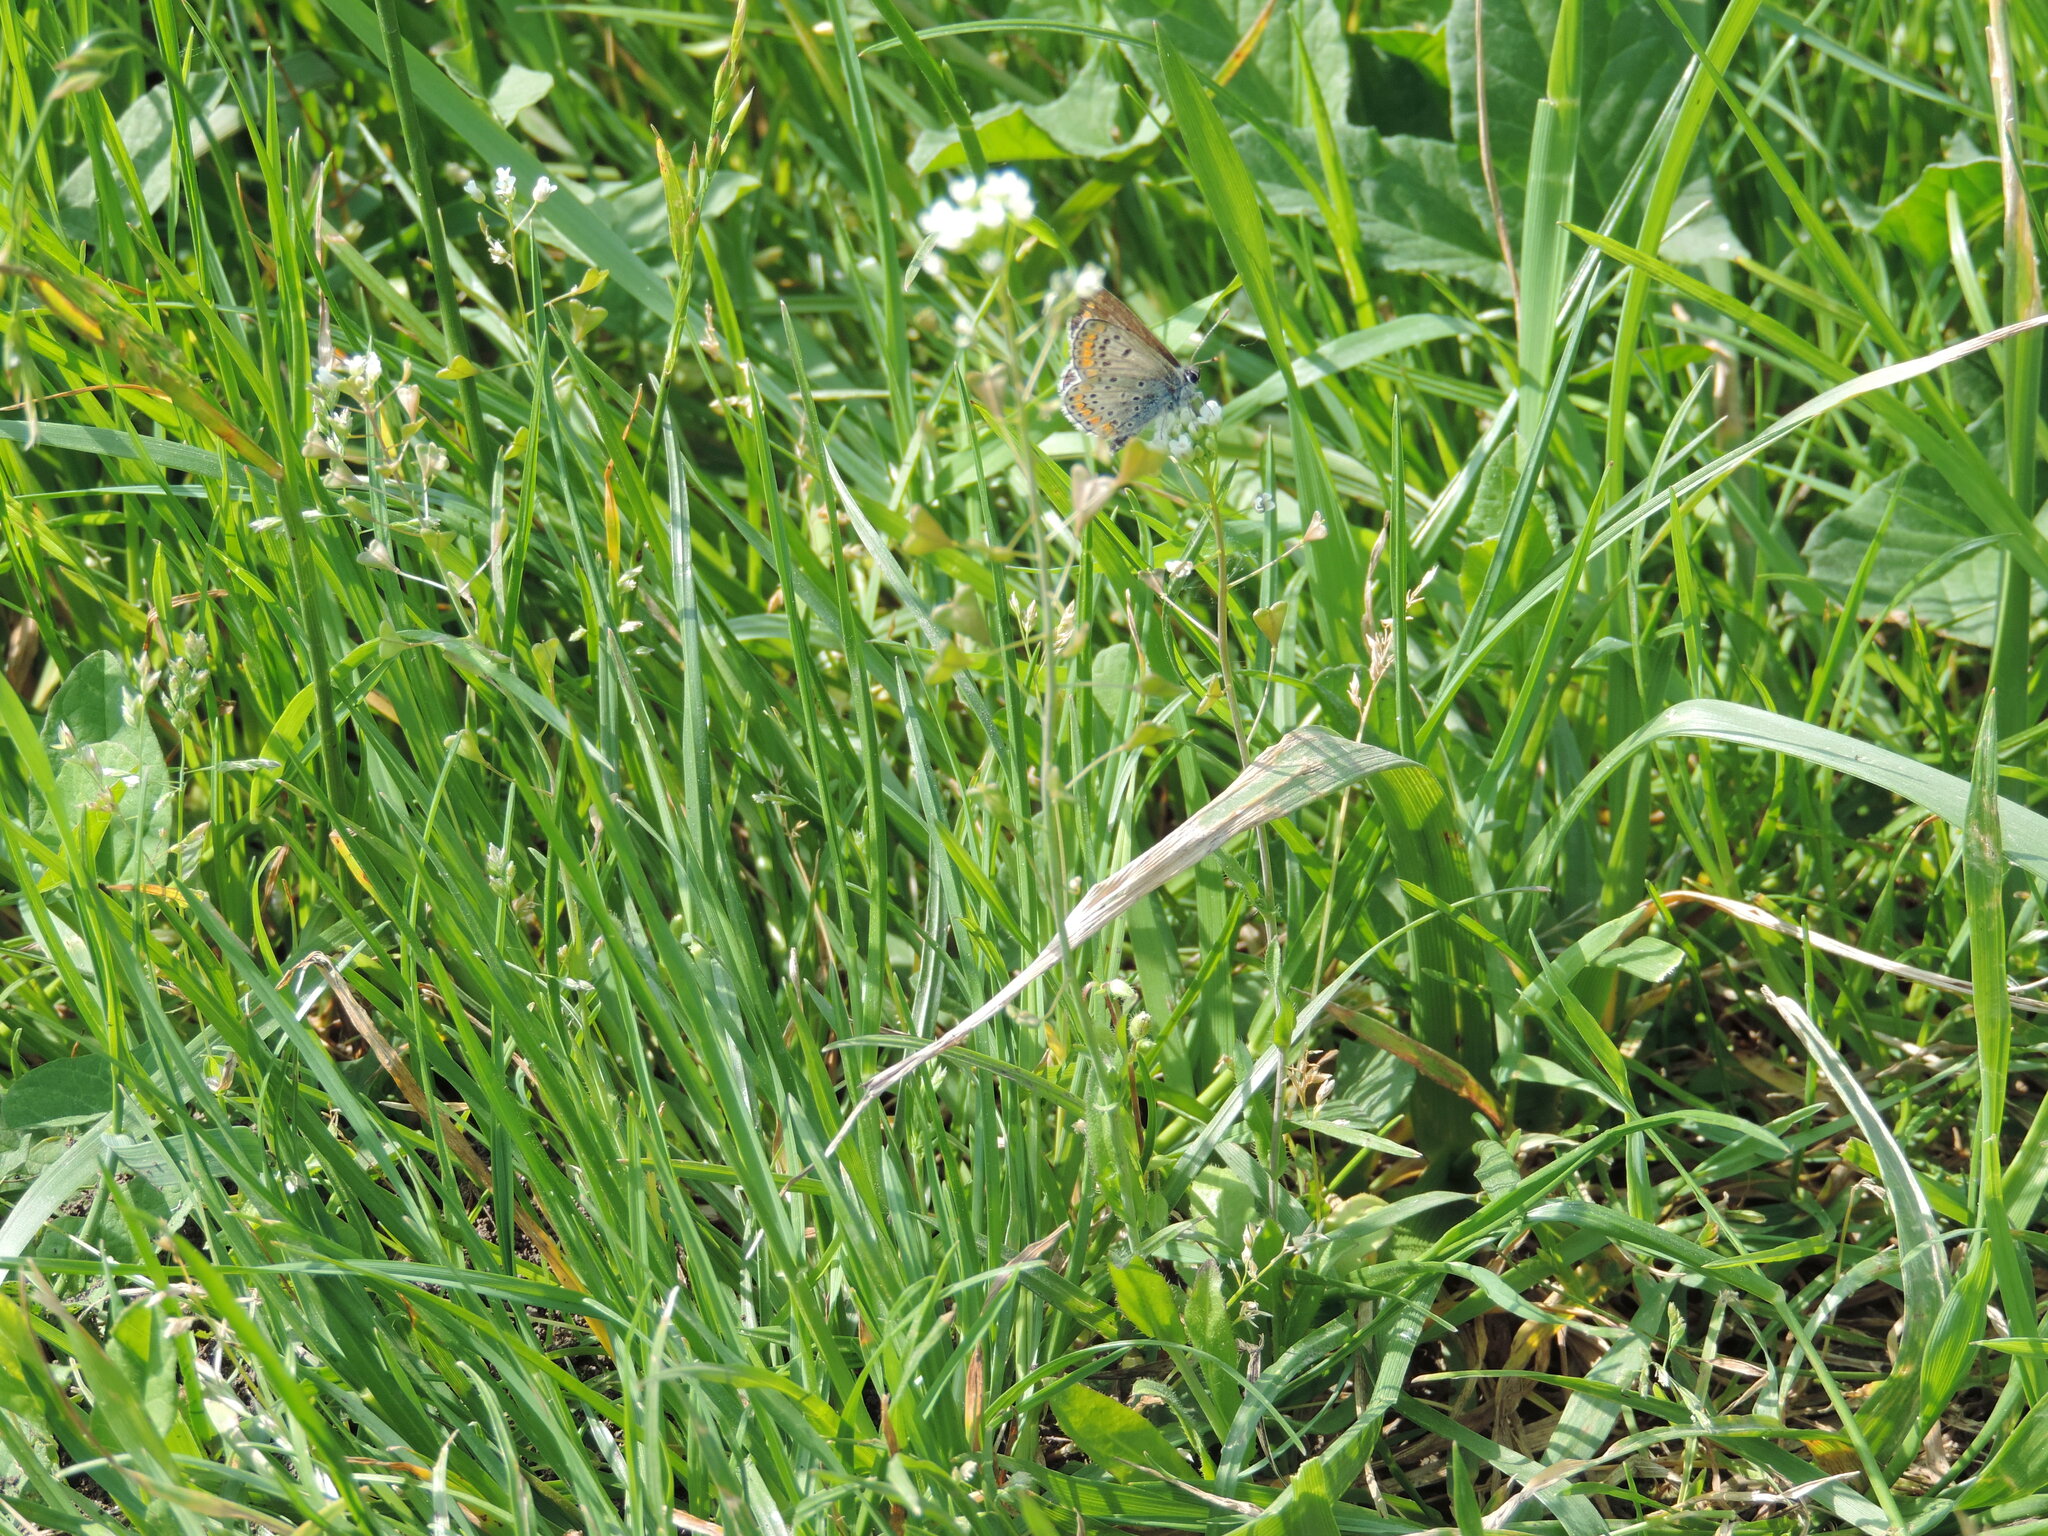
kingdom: Animalia
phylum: Arthropoda
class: Insecta
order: Lepidoptera
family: Lycaenidae
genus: Aricia
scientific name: Aricia agestis
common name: Brown argus
